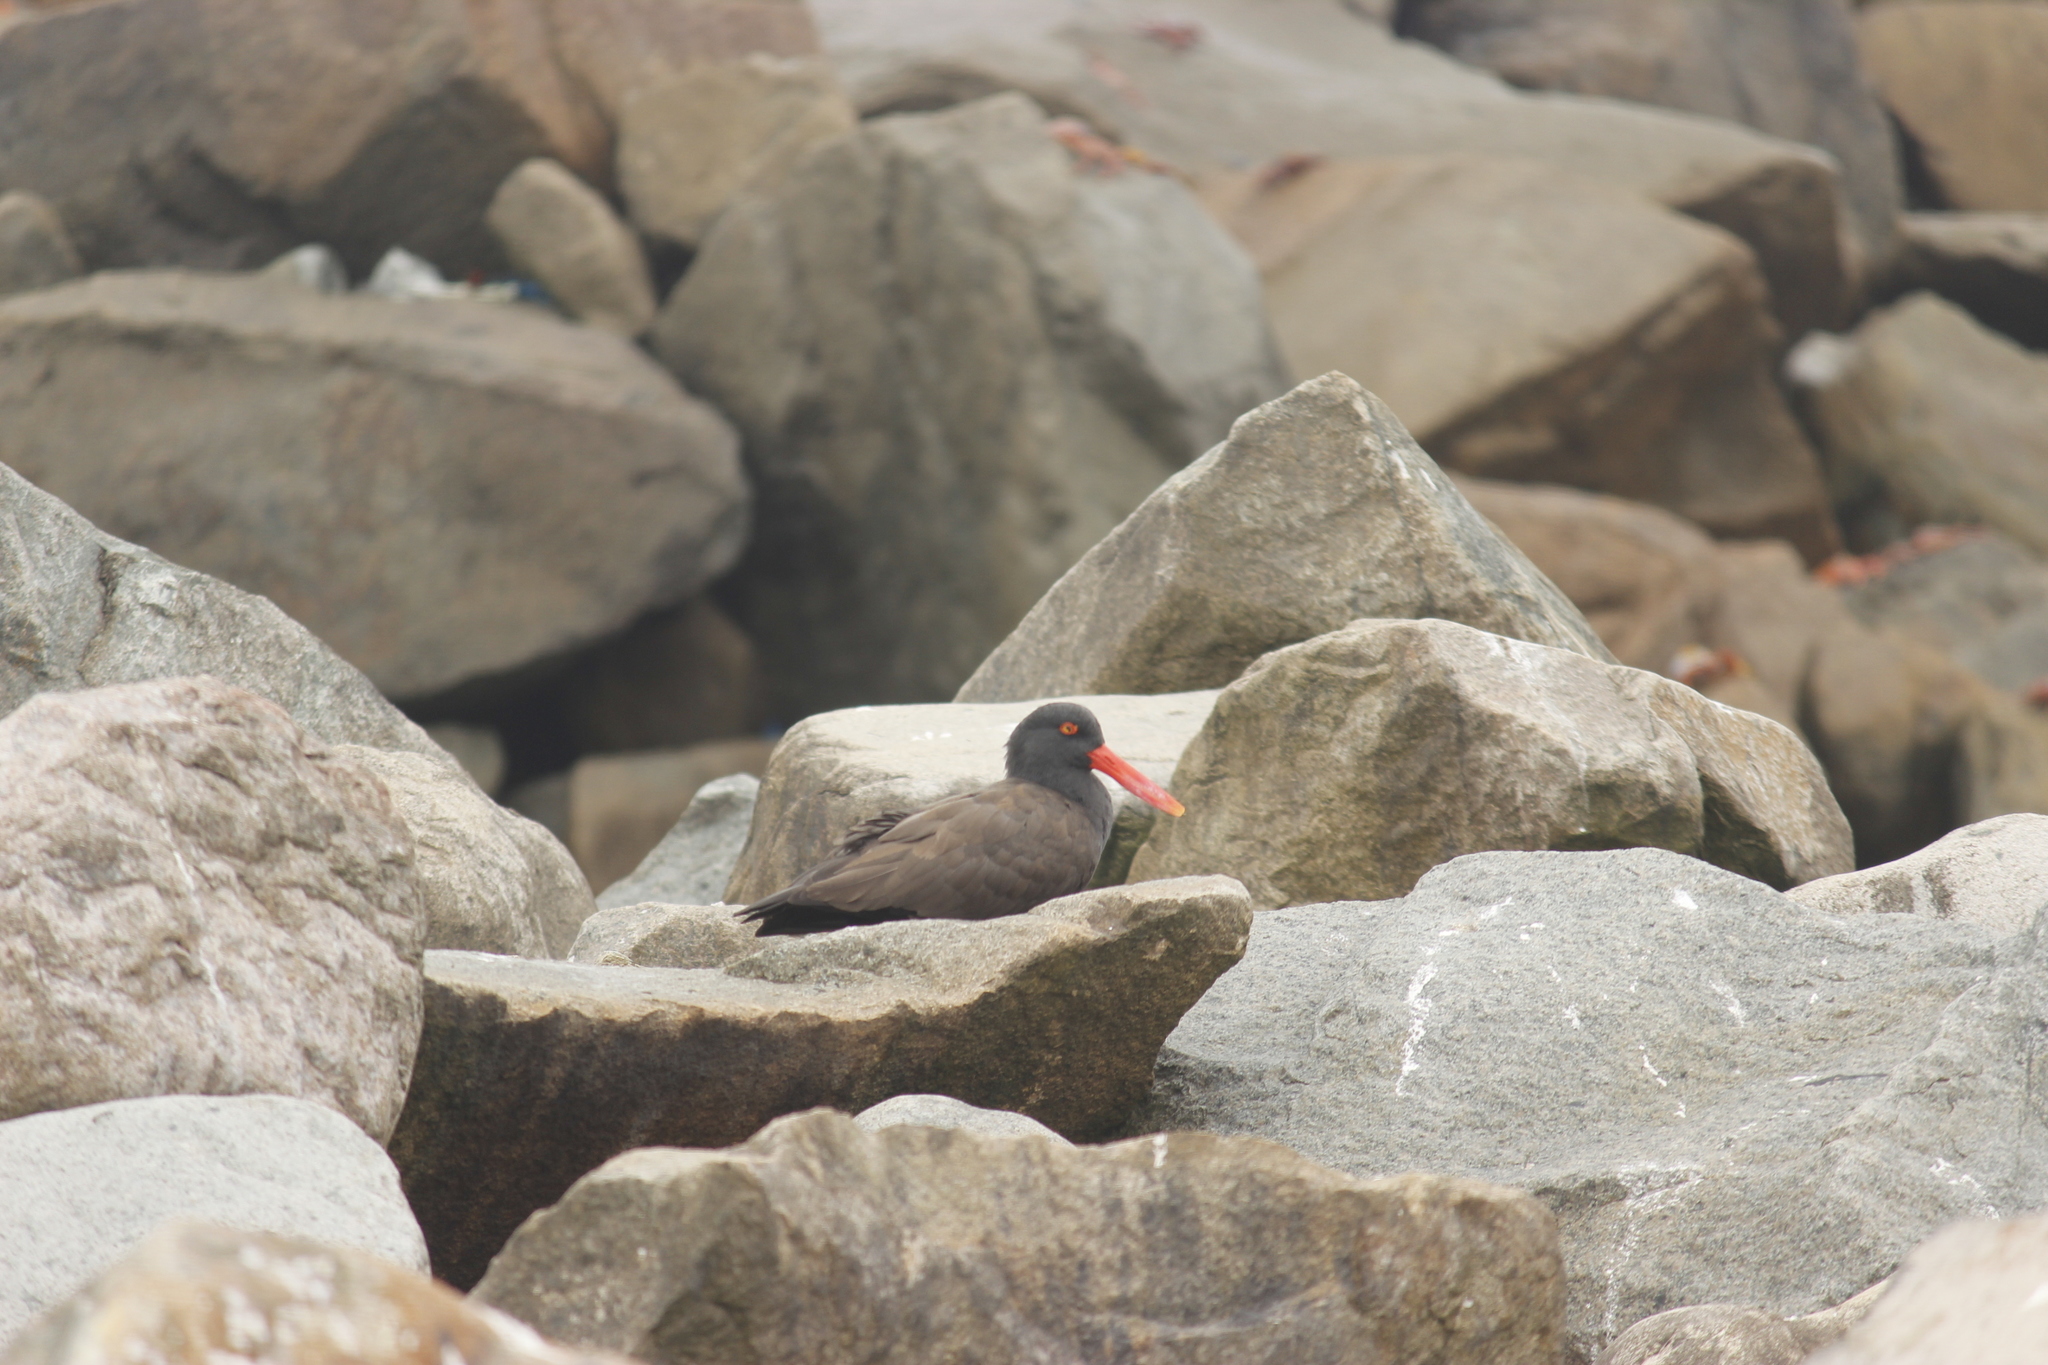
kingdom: Animalia
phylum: Chordata
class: Aves
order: Charadriiformes
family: Haematopodidae
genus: Haematopus
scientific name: Haematopus ater
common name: Blackish oystercatcher
